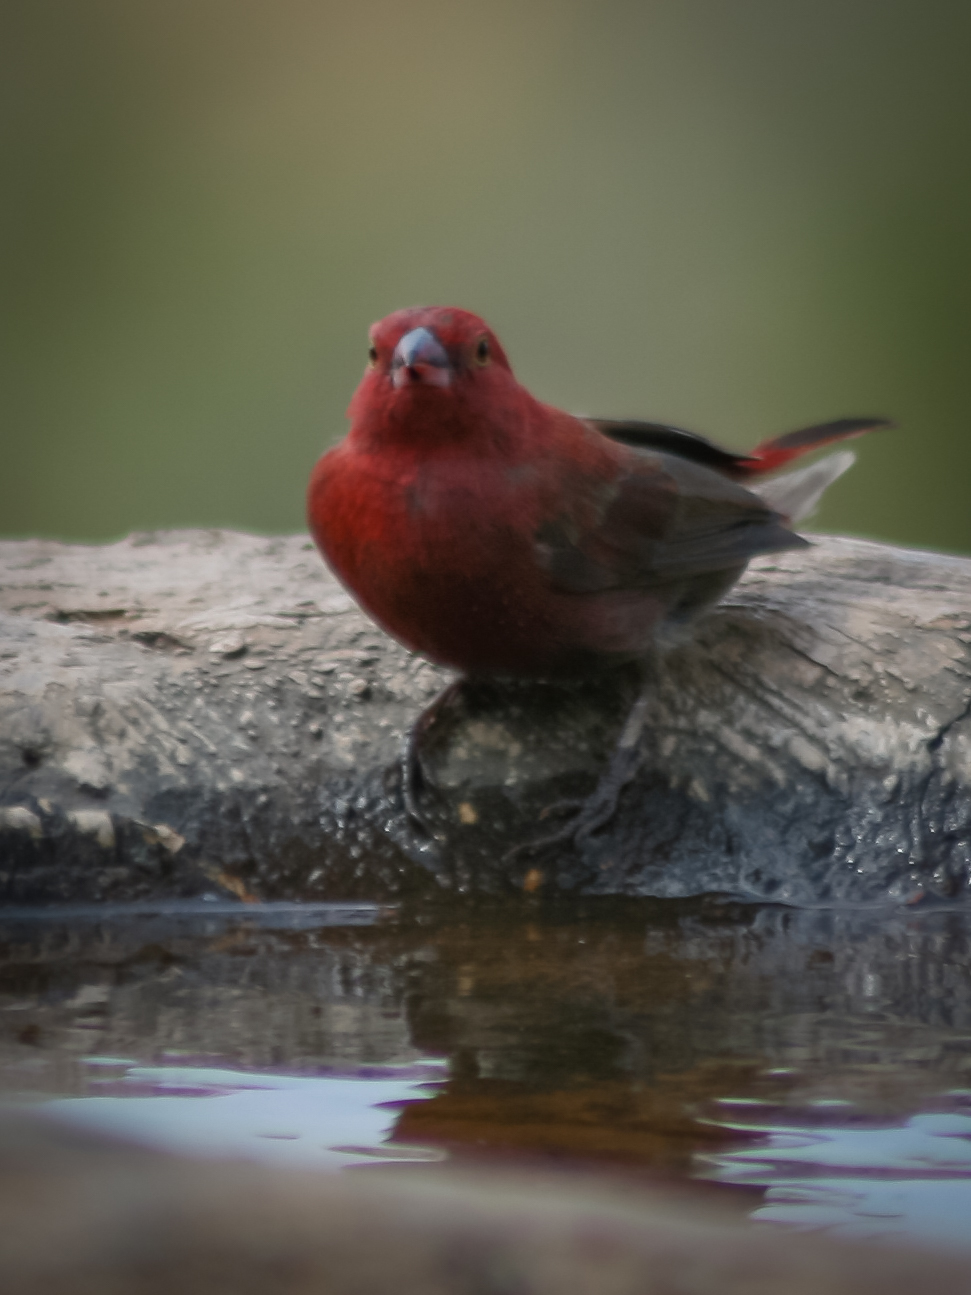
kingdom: Animalia
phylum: Chordata
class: Aves
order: Passeriformes
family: Estrildidae
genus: Lagonosticta
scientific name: Lagonosticta senegala
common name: Red-billed firefinch
